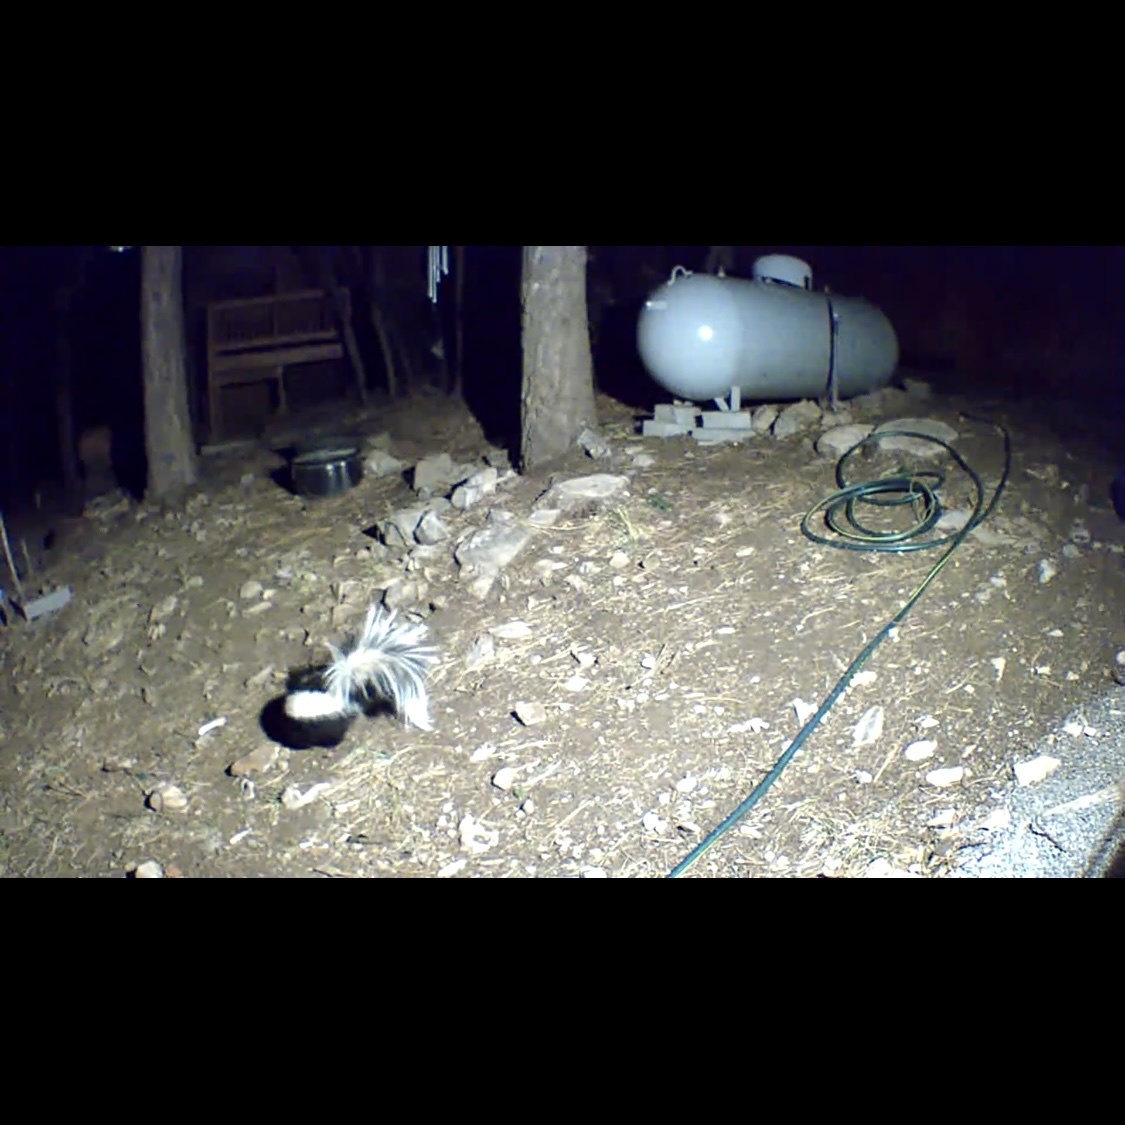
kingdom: Animalia
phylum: Chordata
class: Mammalia
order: Carnivora
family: Mephitidae
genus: Mephitis
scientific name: Mephitis mephitis
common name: Striped skunk
